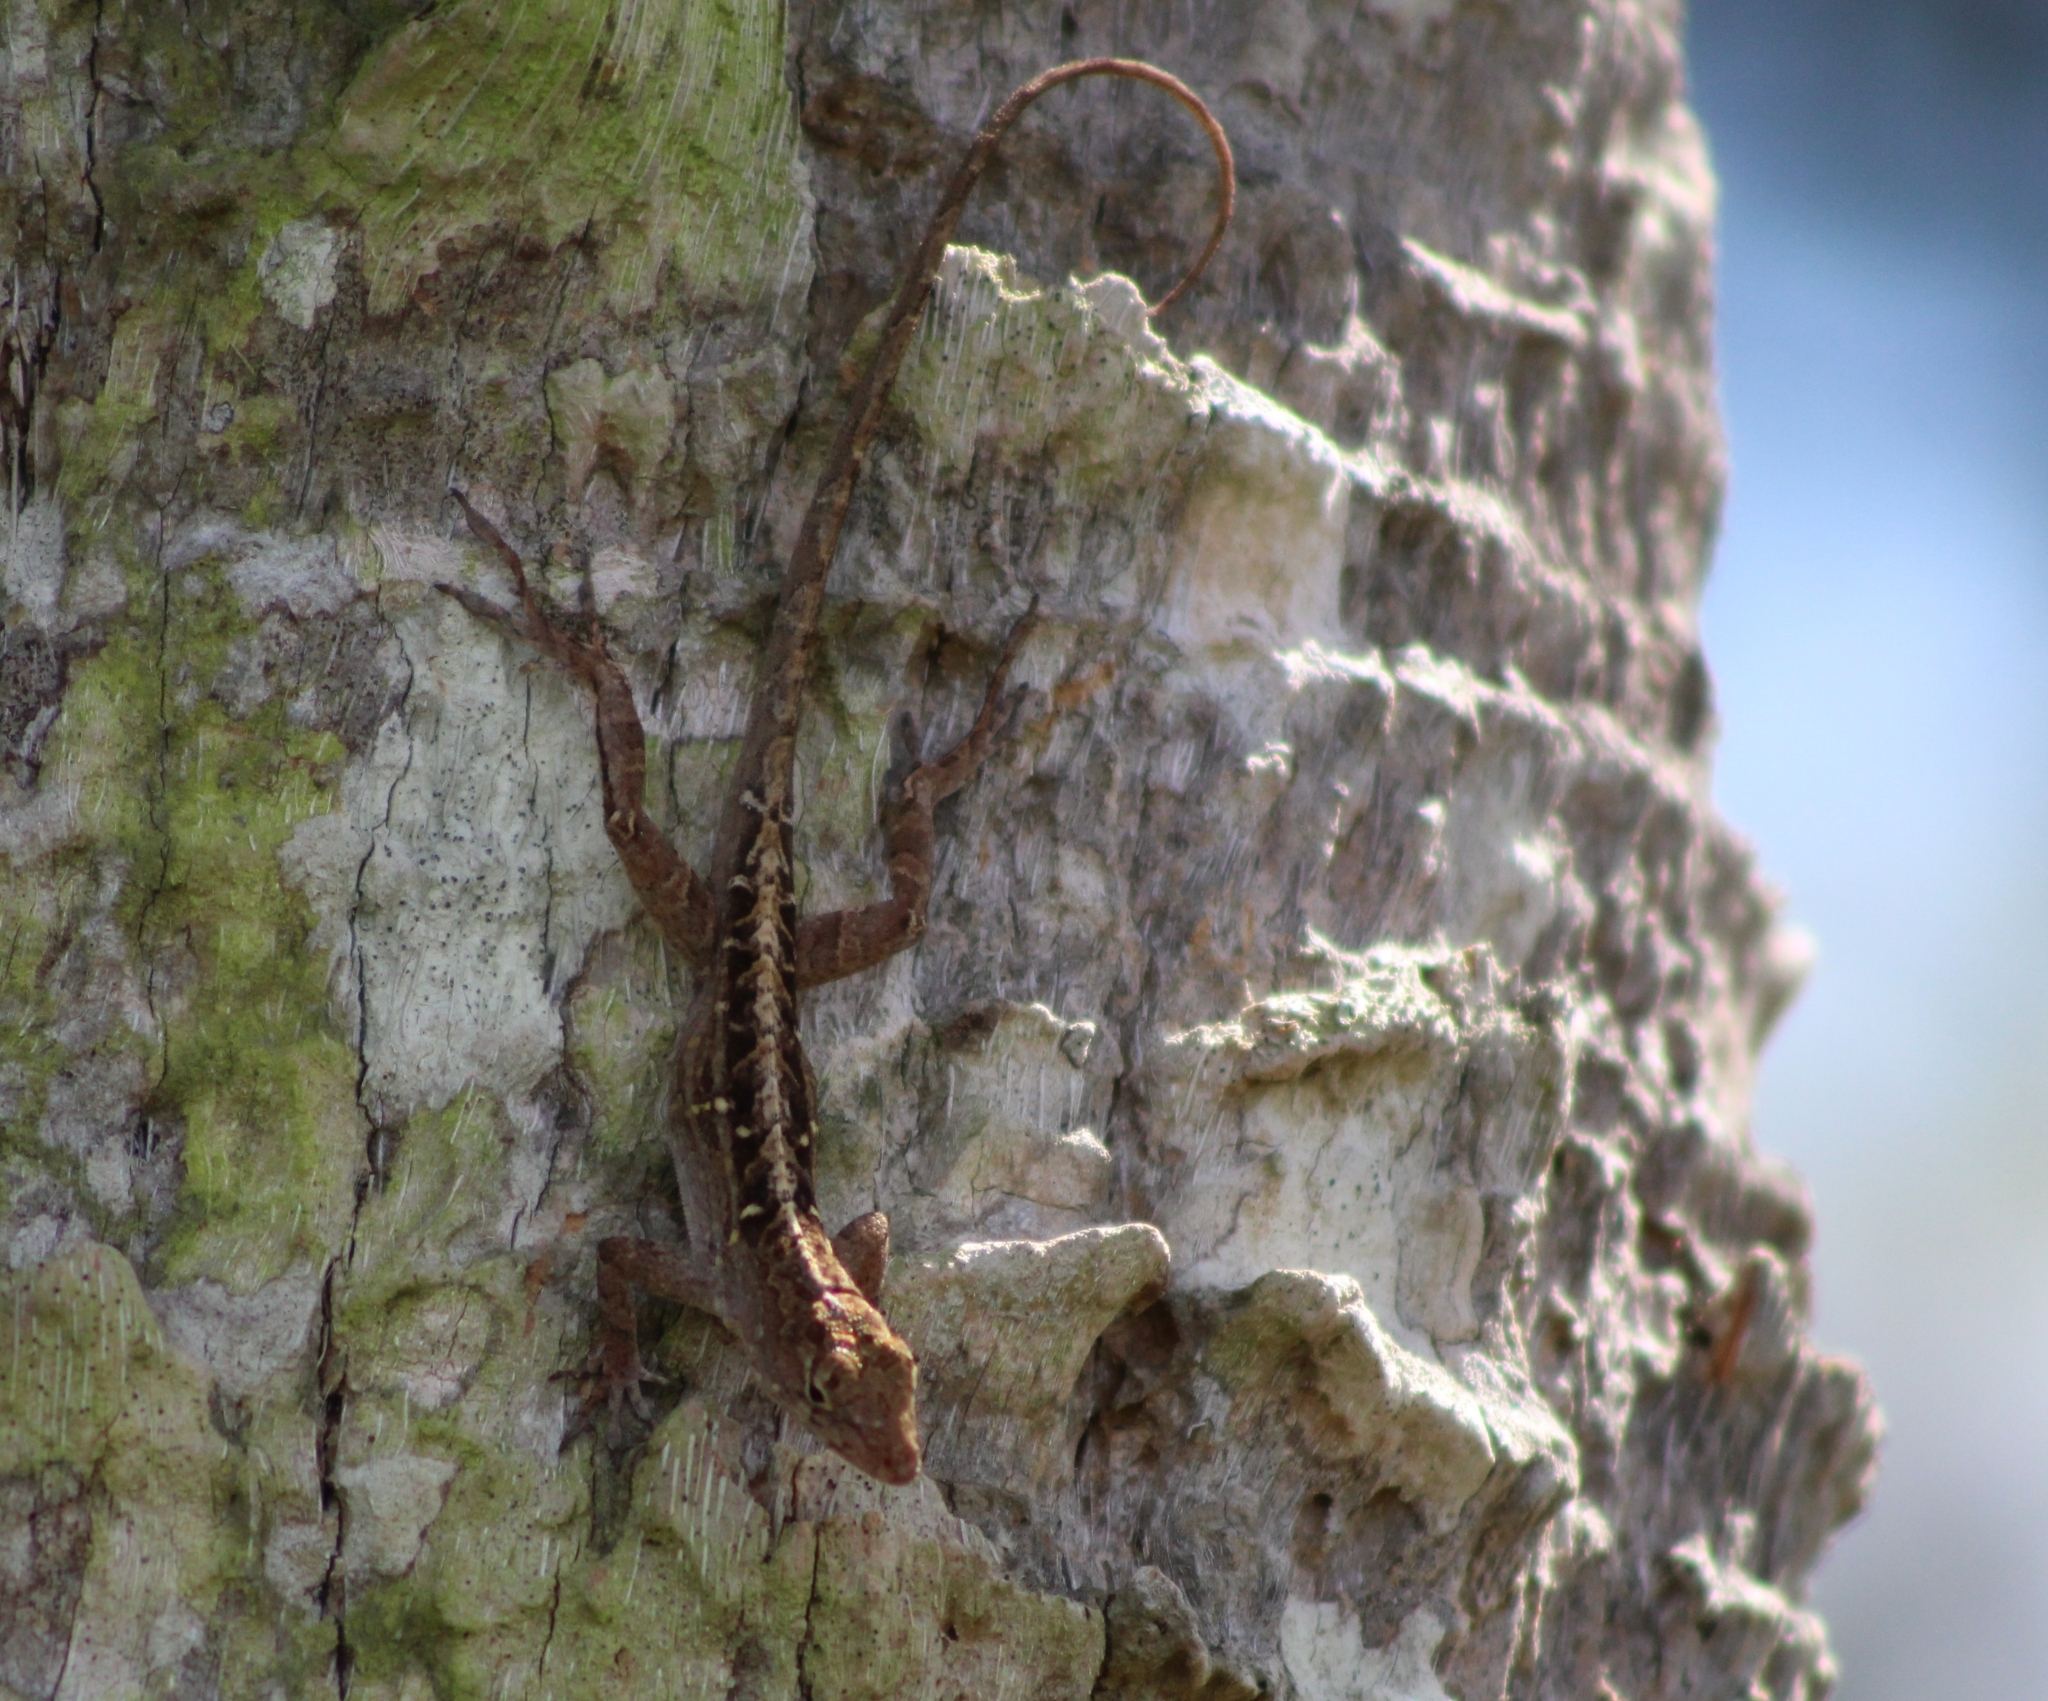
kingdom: Animalia
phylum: Chordata
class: Squamata
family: Dactyloidae
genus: Anolis
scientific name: Anolis sagrei
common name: Brown anole
